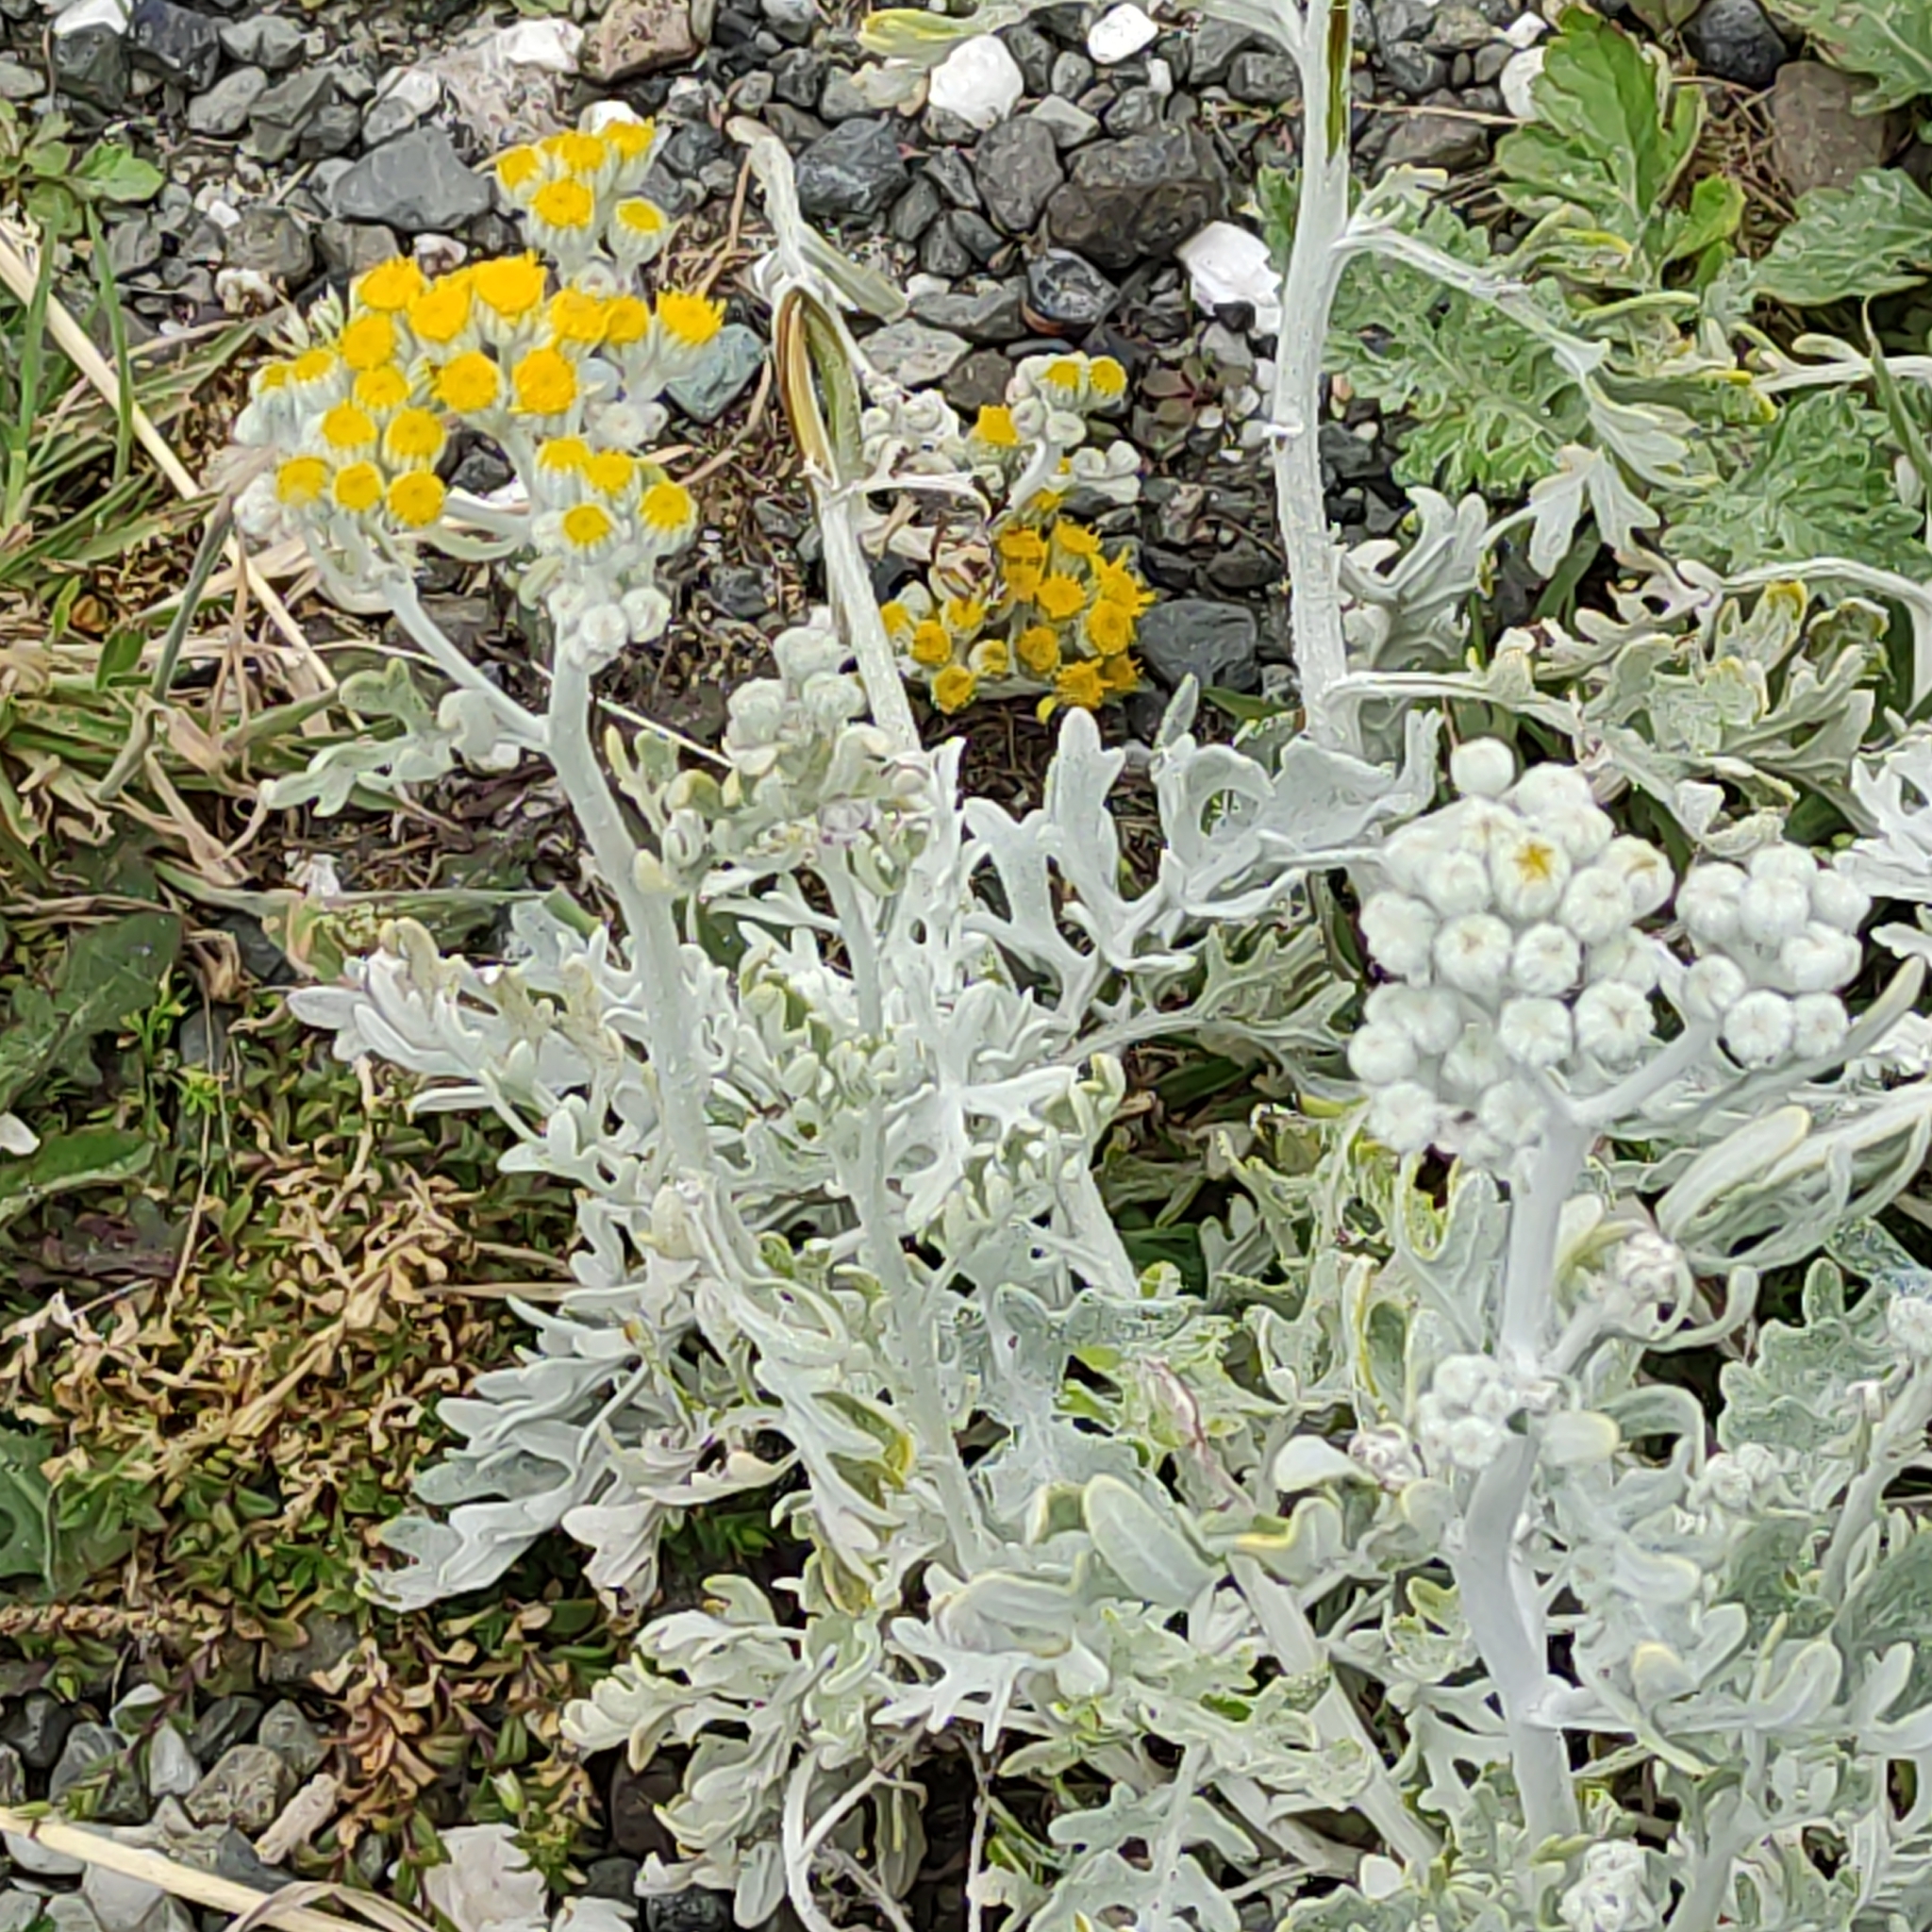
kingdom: Plantae
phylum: Tracheophyta
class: Magnoliopsida
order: Asterales
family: Asteraceae
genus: Jacobaea
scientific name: Jacobaea maritima
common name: Silver ragwort
